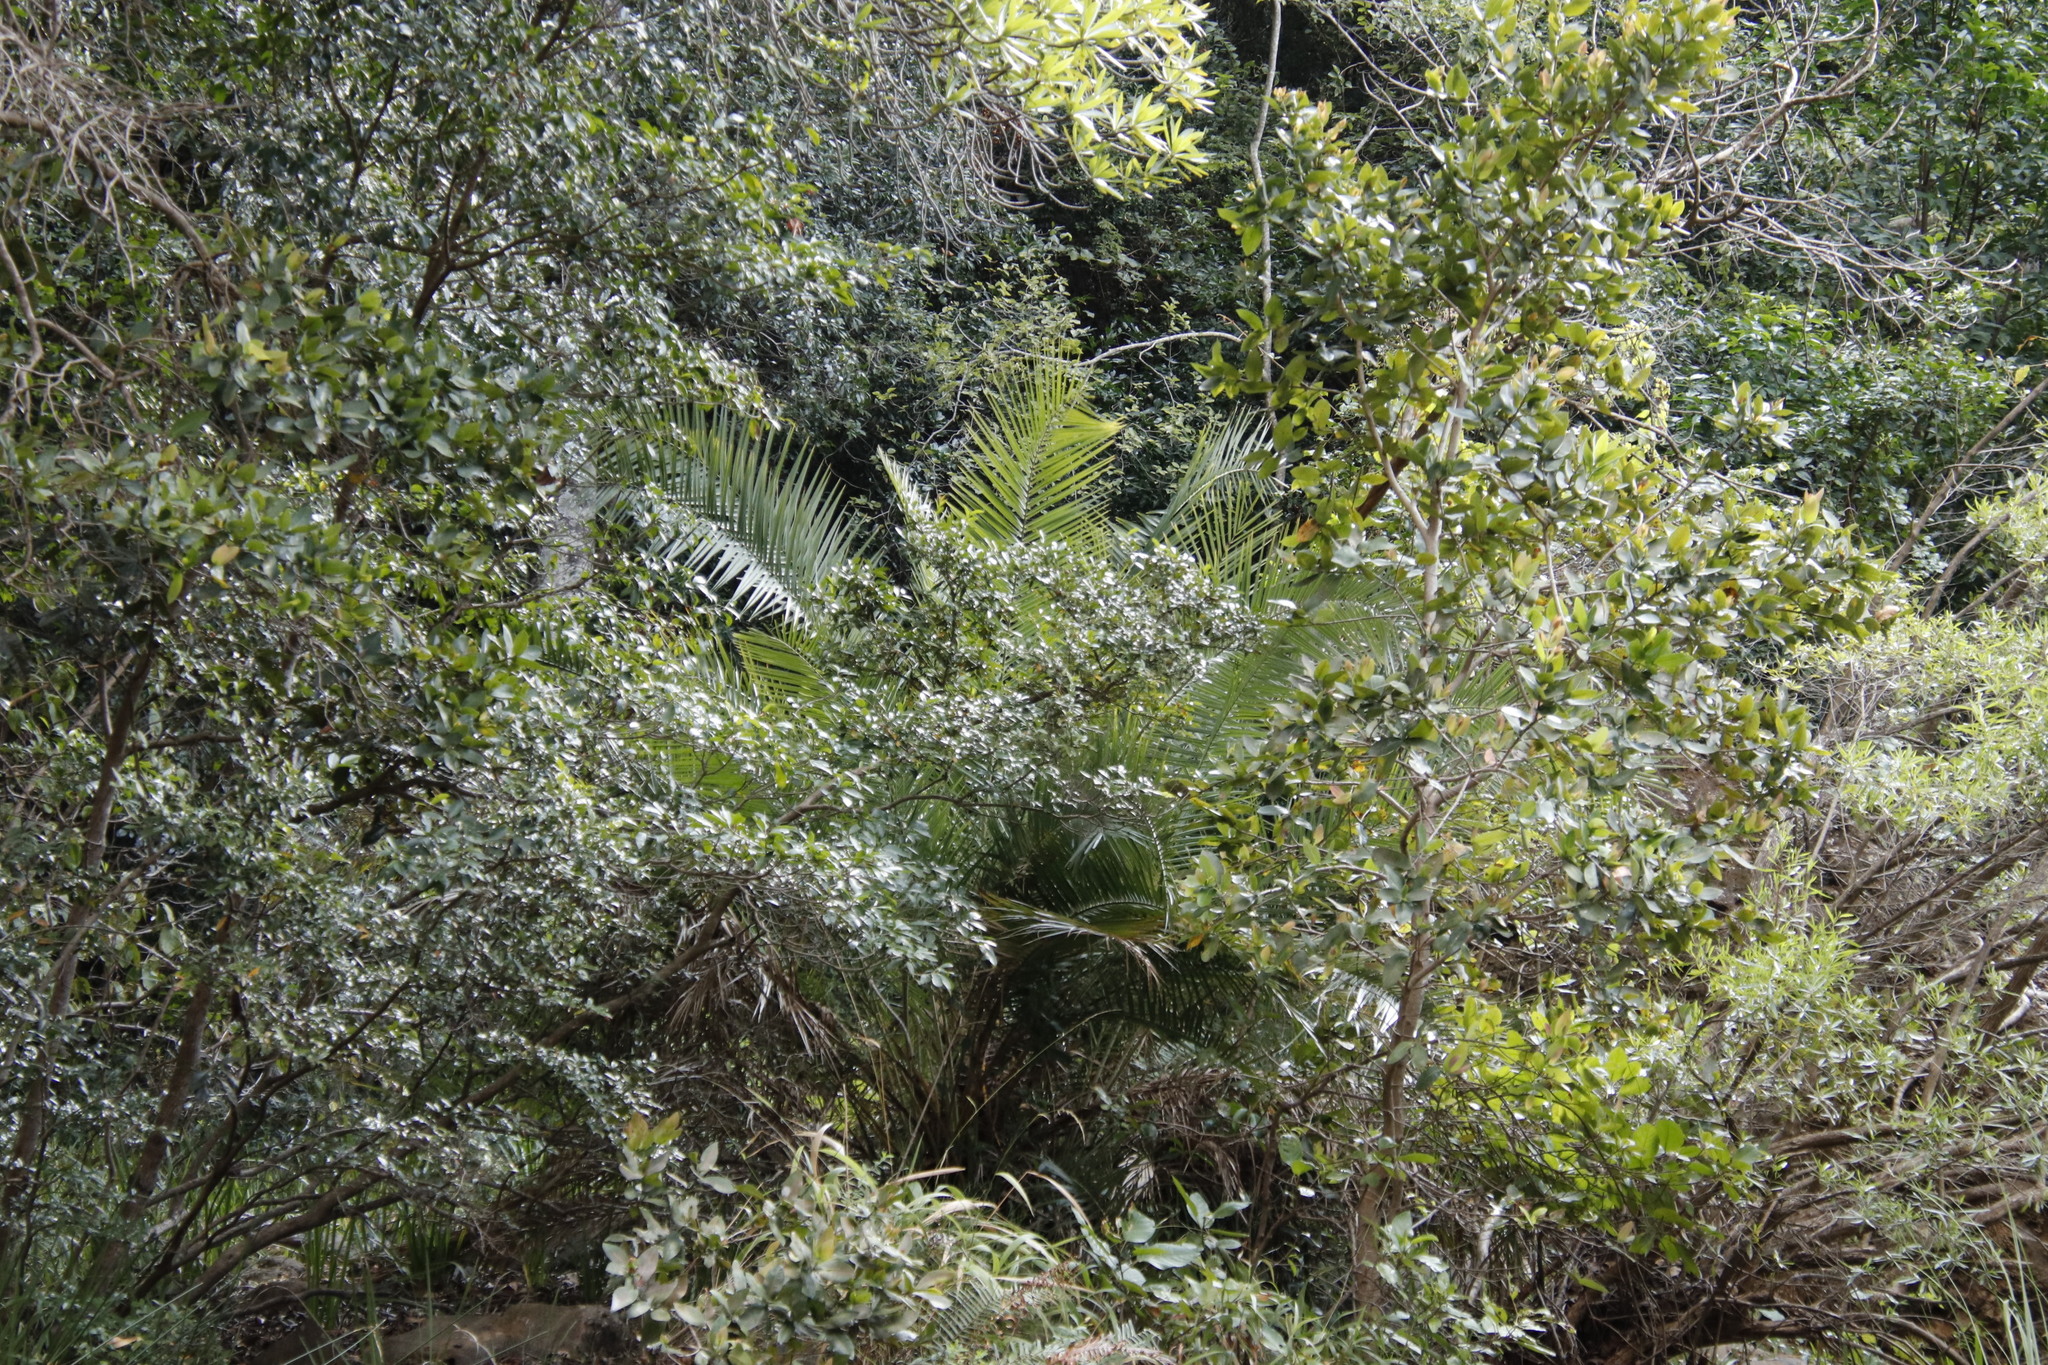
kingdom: Plantae
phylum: Tracheophyta
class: Liliopsida
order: Arecales
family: Arecaceae
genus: Phoenix
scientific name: Phoenix reclinata
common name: Senegal date palm
